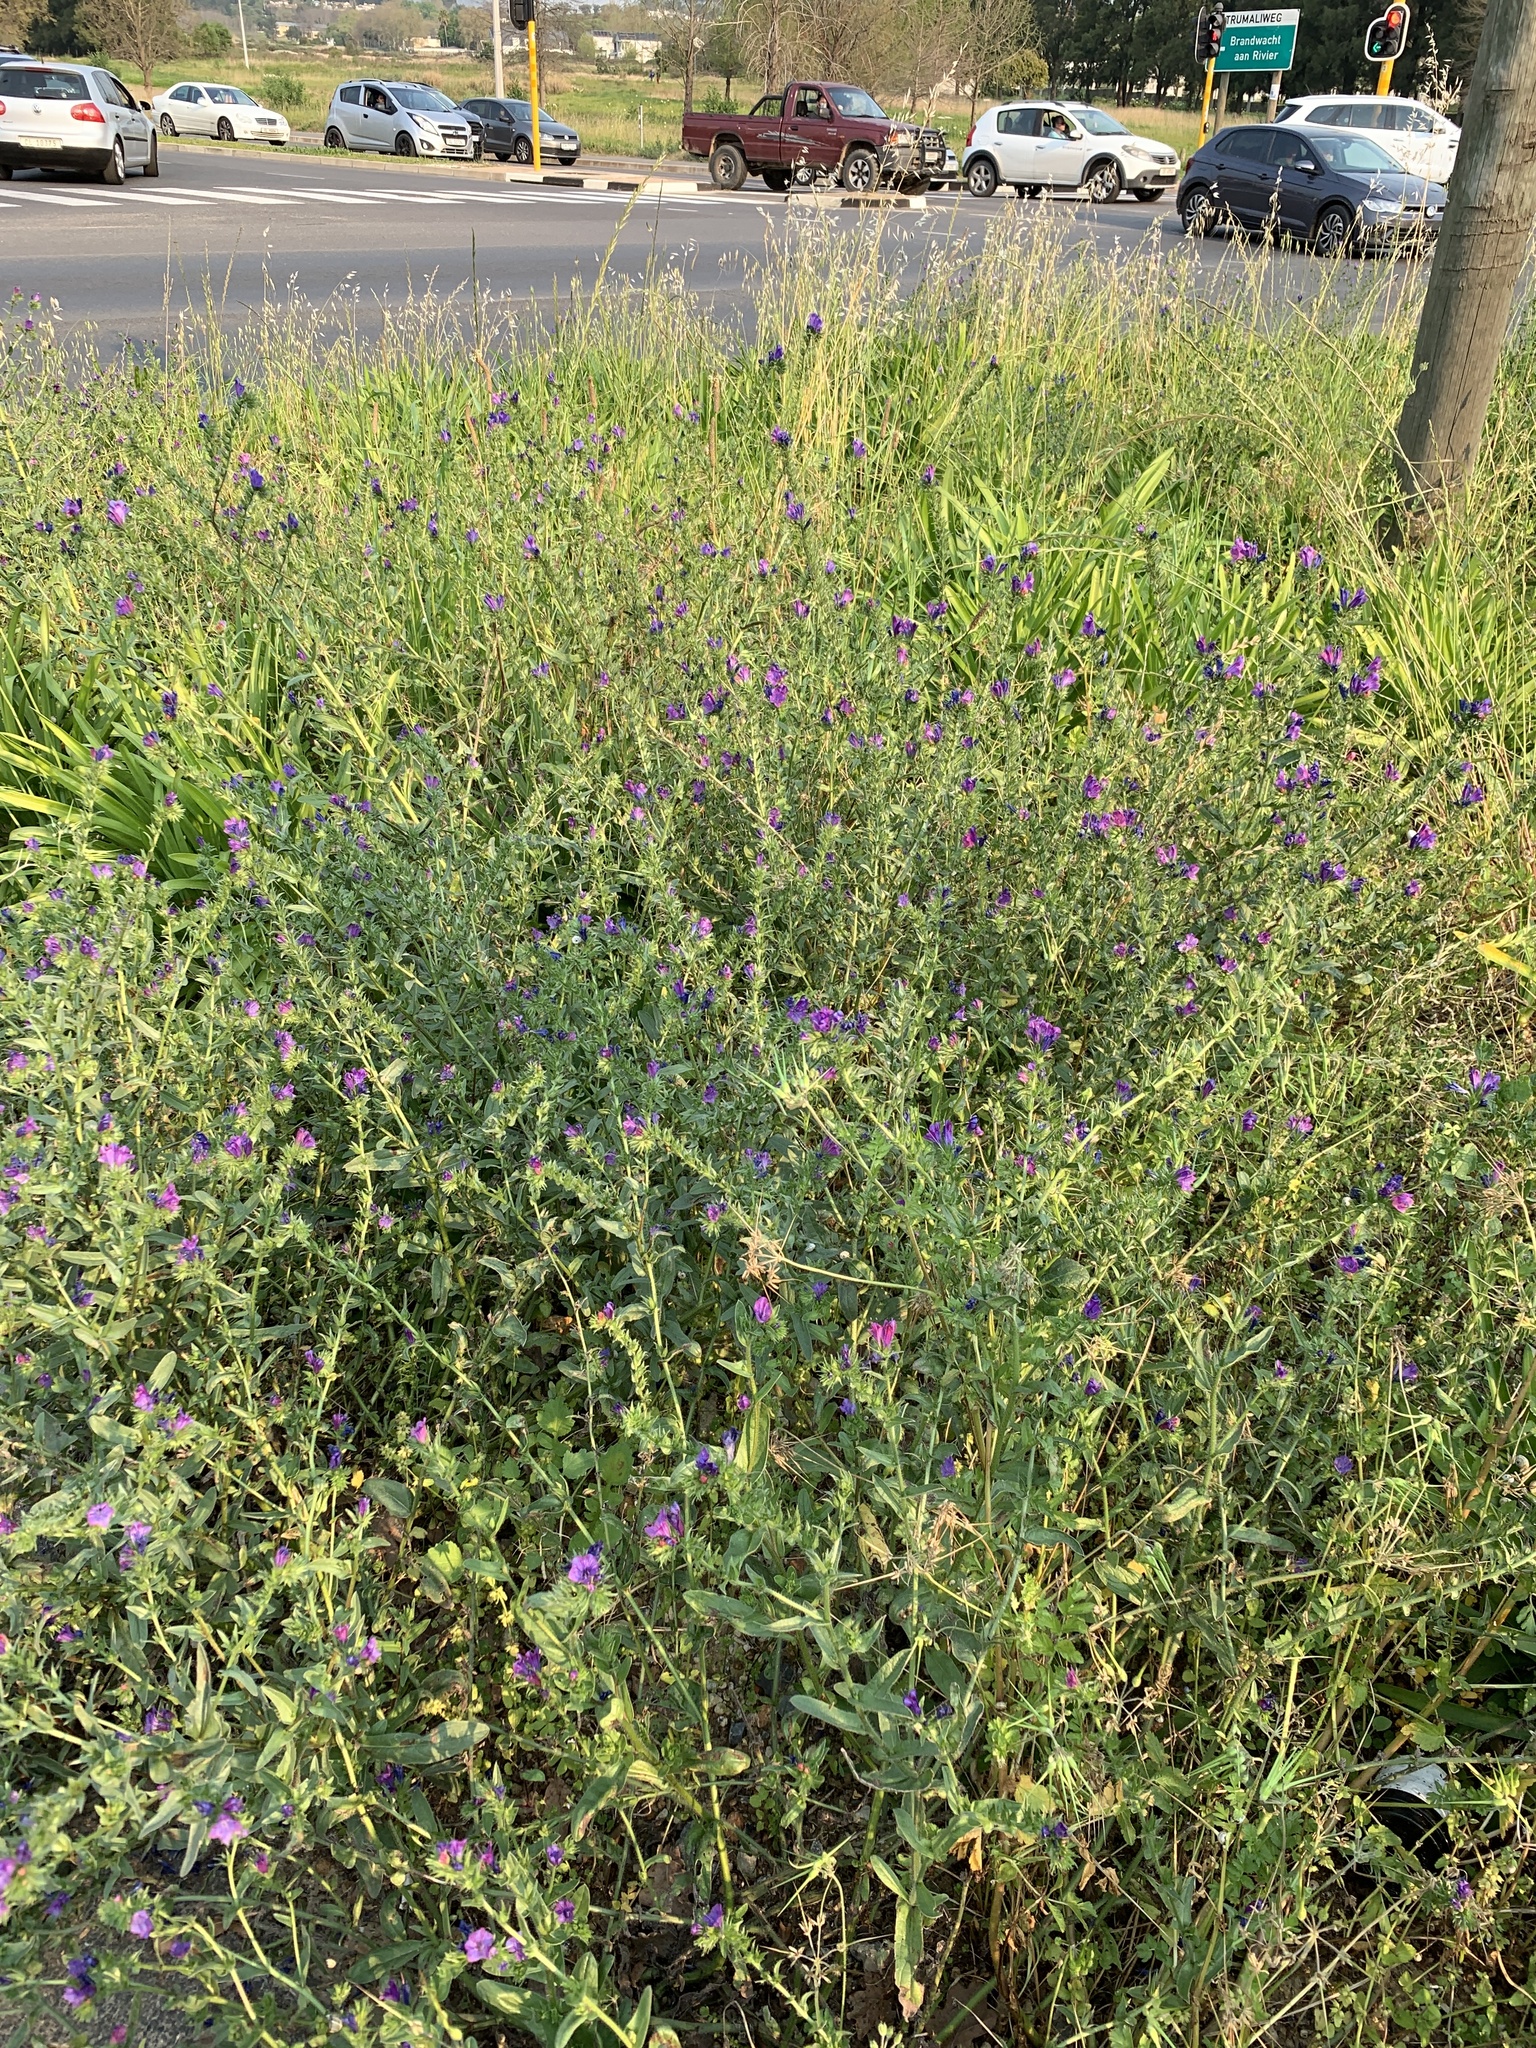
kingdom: Plantae
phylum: Tracheophyta
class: Magnoliopsida
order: Boraginales
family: Boraginaceae
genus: Echium
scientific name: Echium plantagineum
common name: Purple viper's-bugloss
